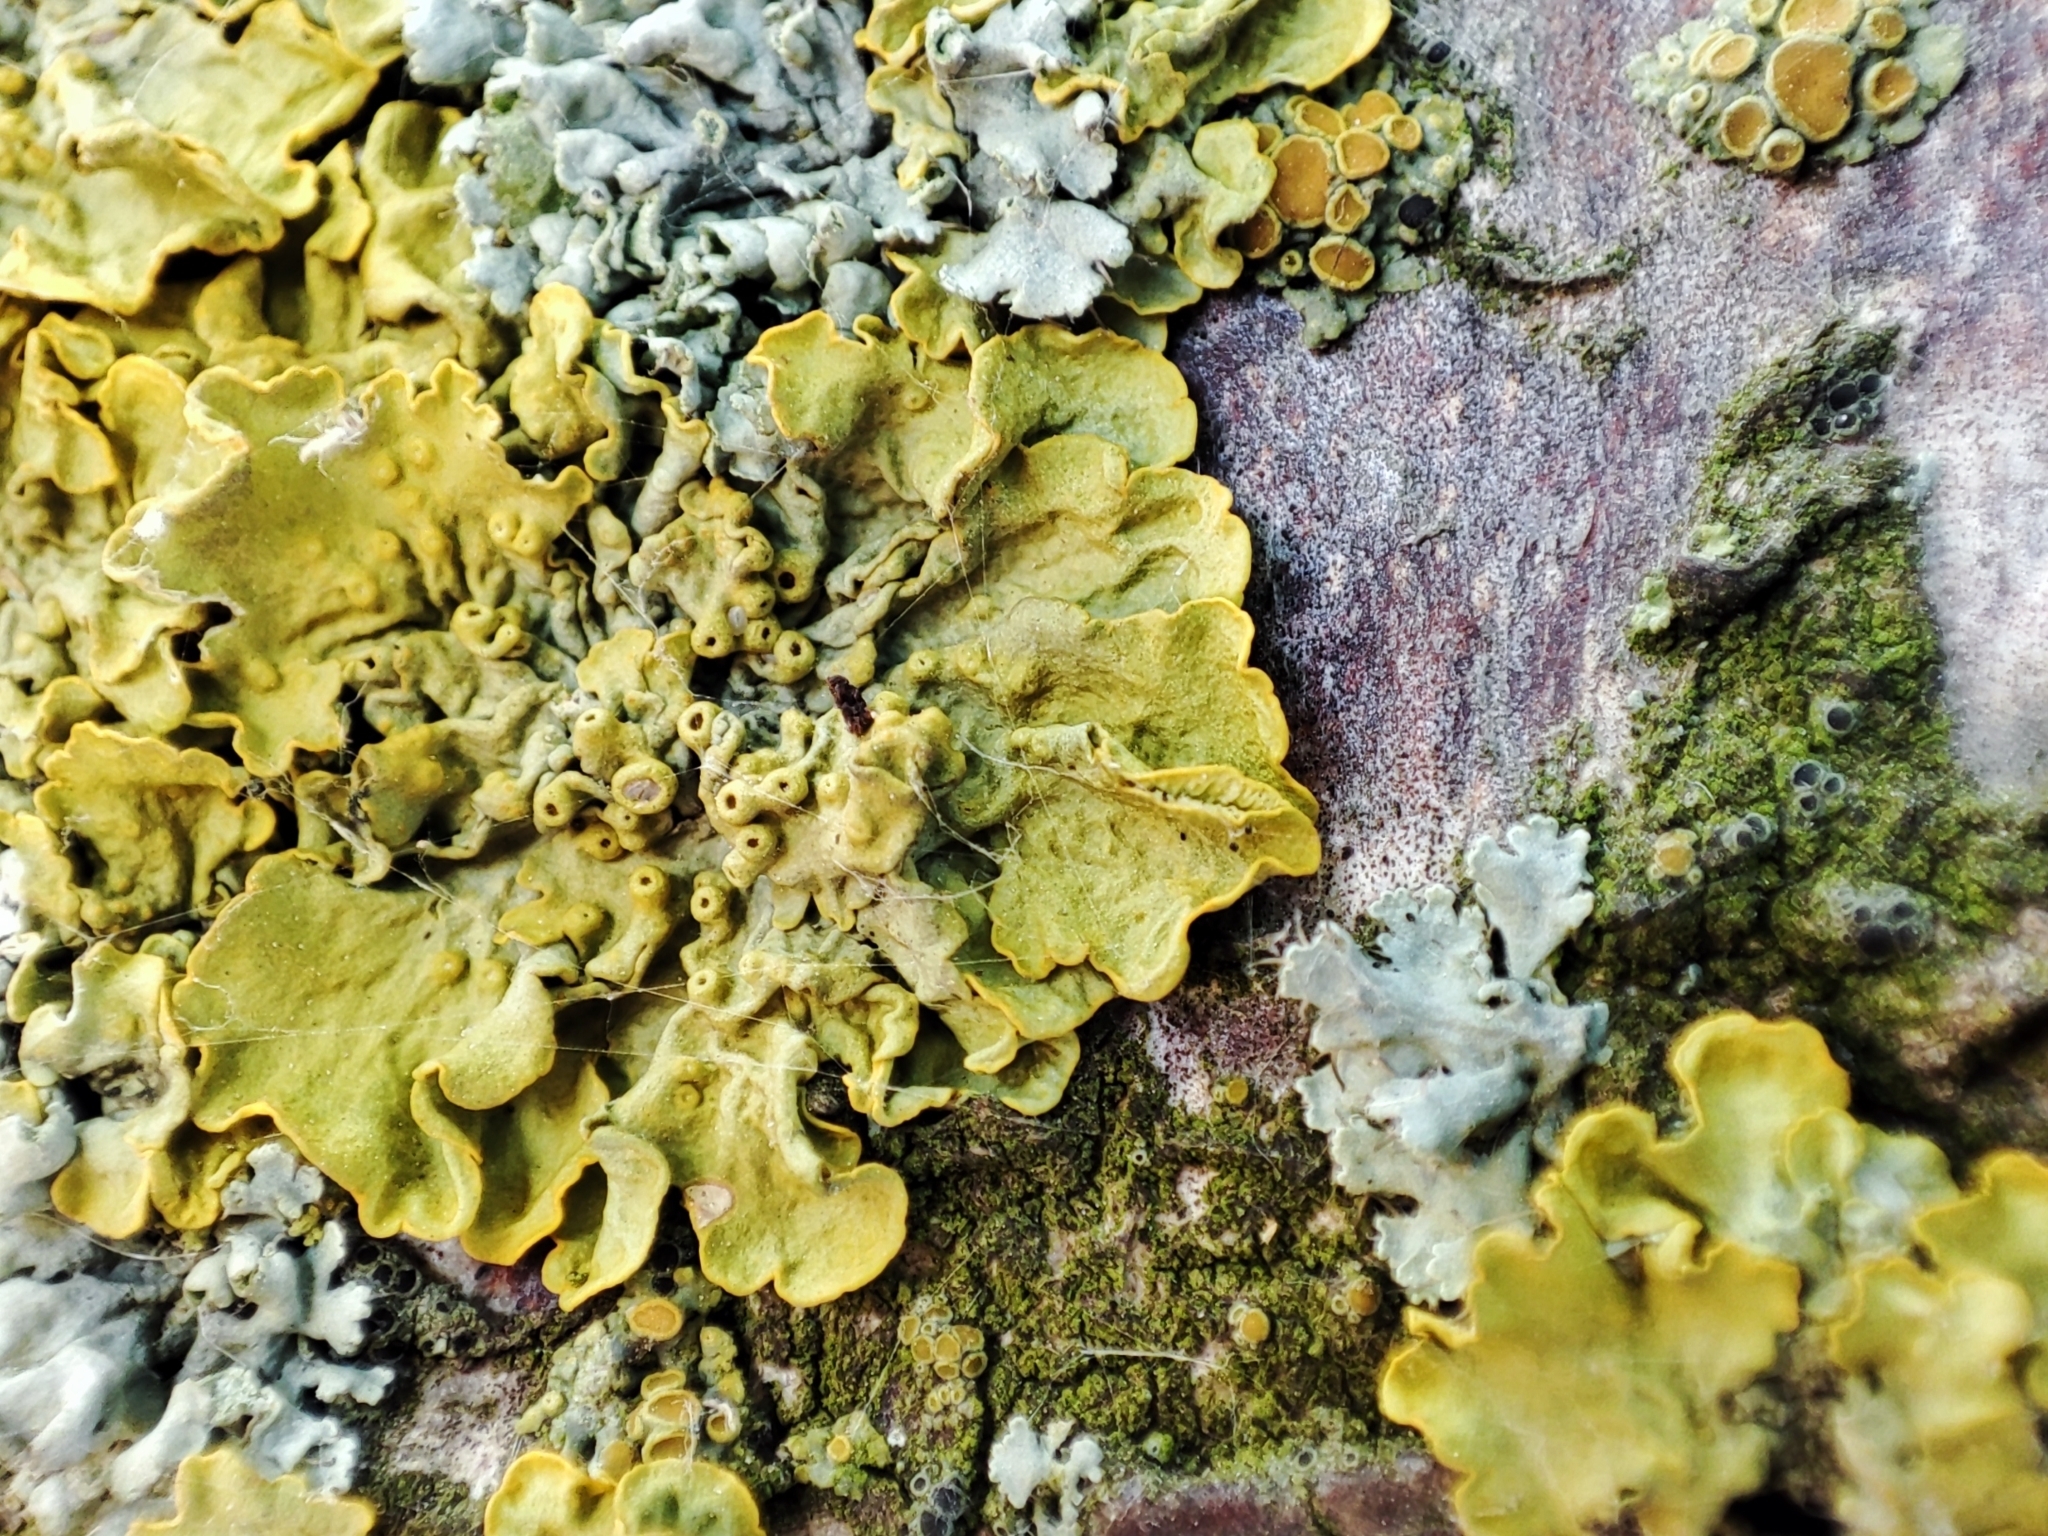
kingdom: Fungi
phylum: Ascomycota
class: Lecanoromycetes
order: Teloschistales
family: Teloschistaceae
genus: Xanthoria
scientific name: Xanthoria parietina
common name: Common orange lichen
